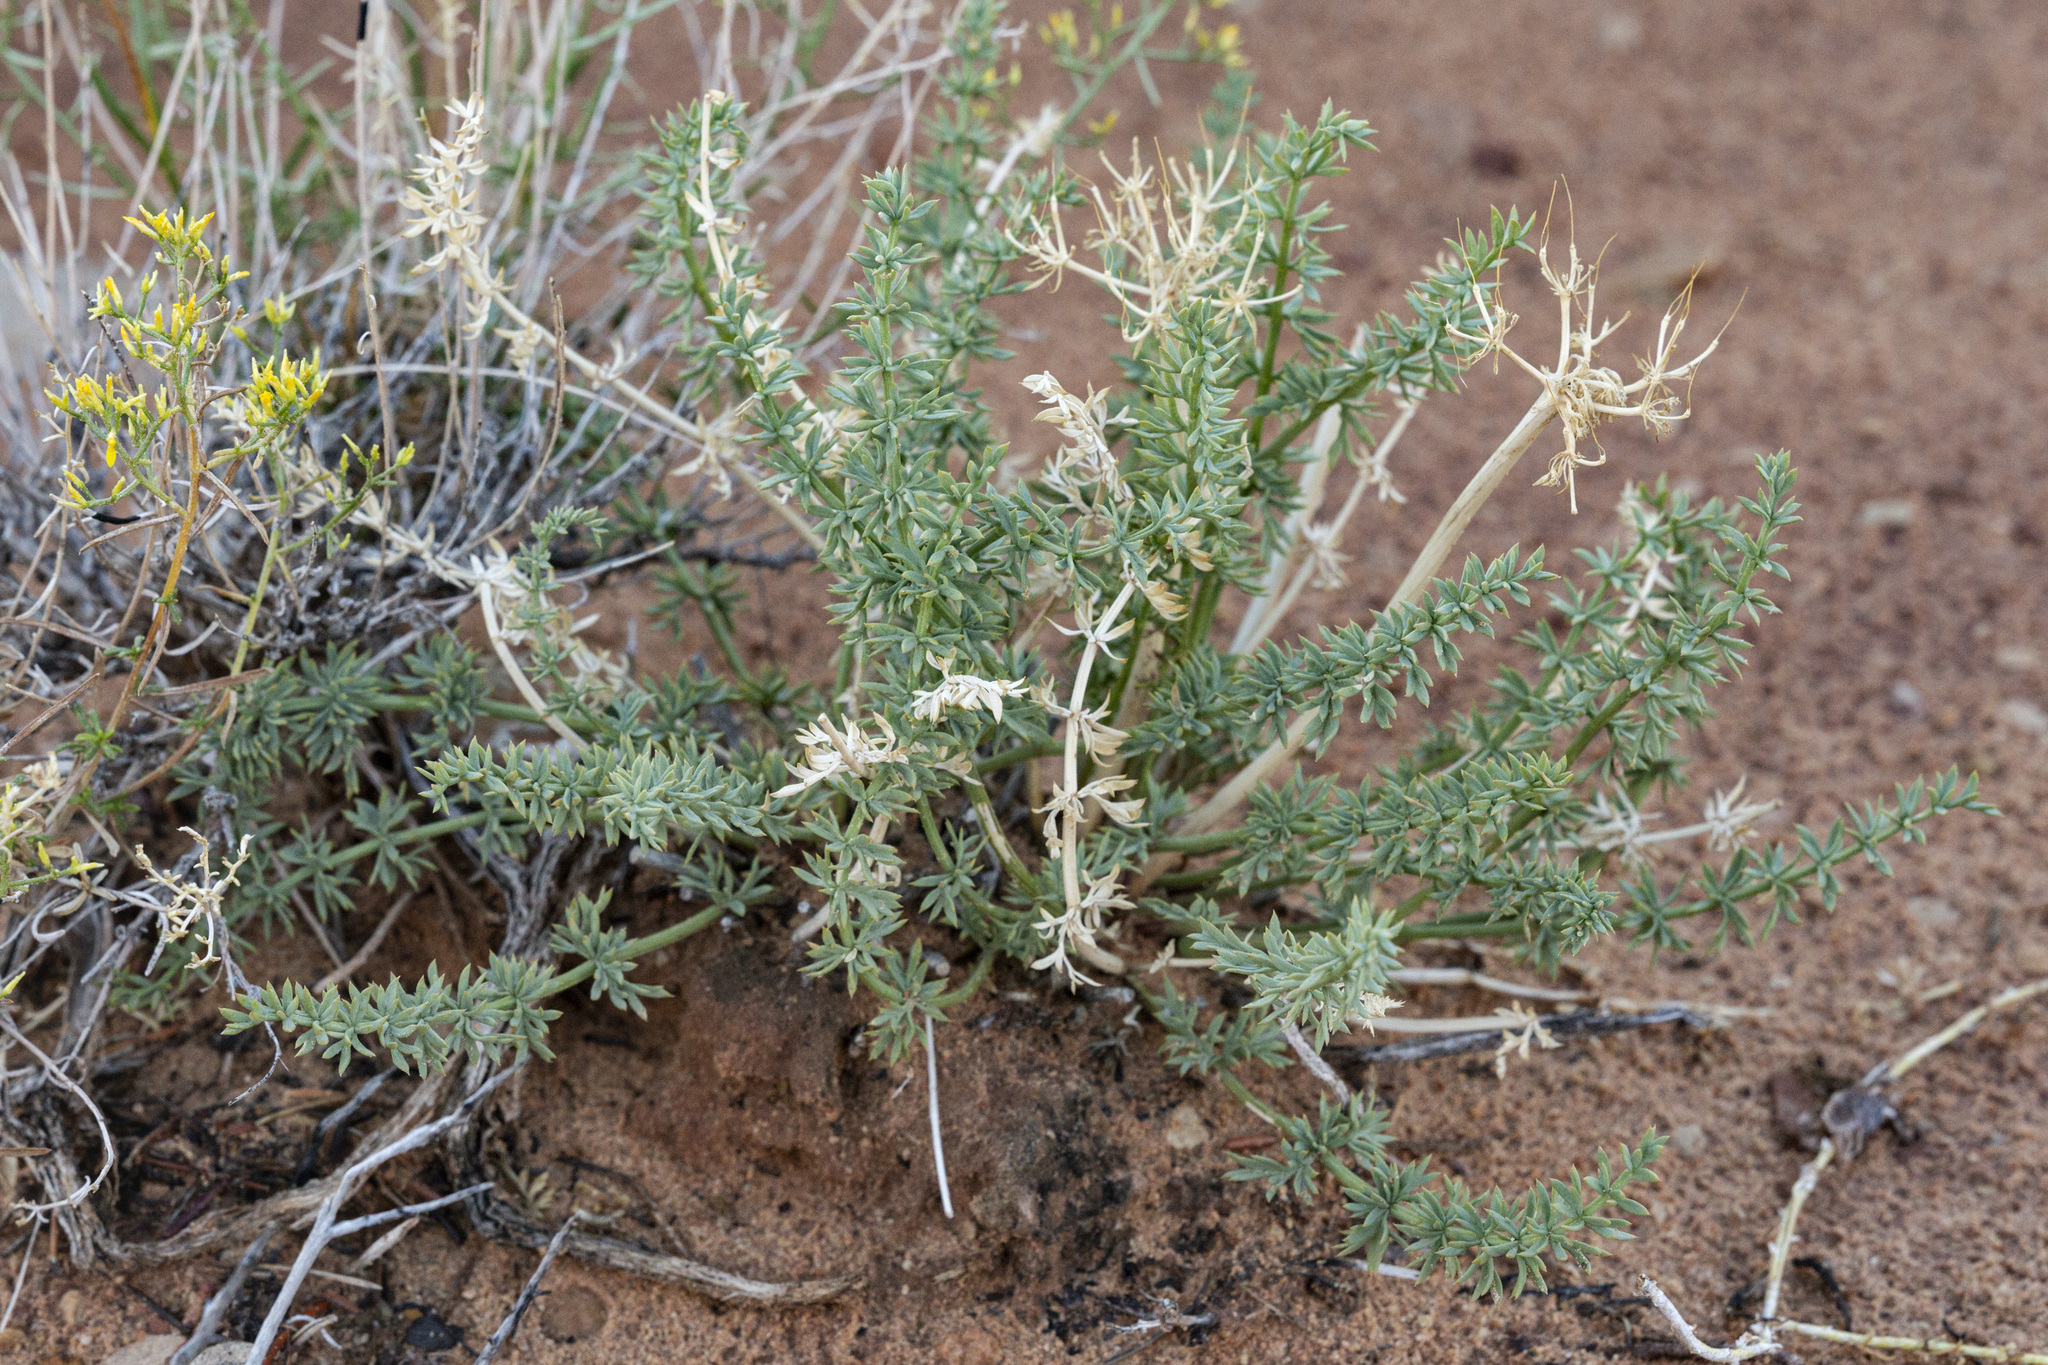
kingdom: Plantae
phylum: Tracheophyta
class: Magnoliopsida
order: Apiales
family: Apiaceae
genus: Lomatium
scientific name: Lomatium parryi
